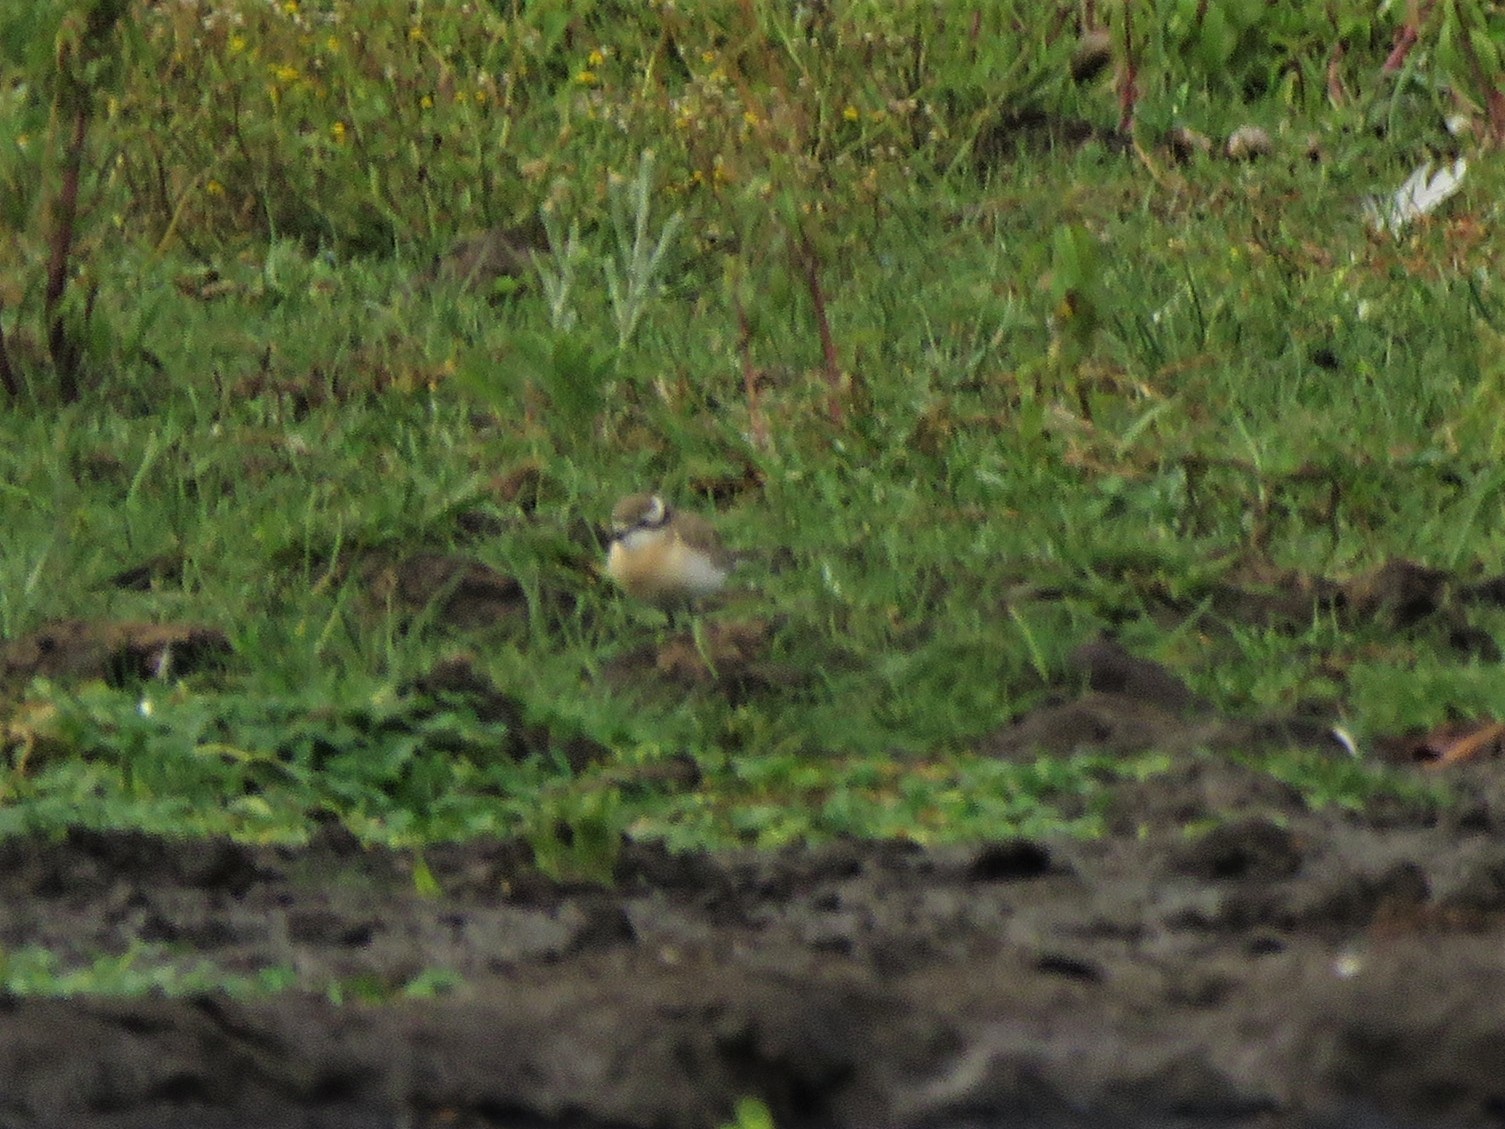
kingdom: Animalia
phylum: Chordata
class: Aves
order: Charadriiformes
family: Charadriidae
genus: Anarhynchus
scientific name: Anarhynchus
